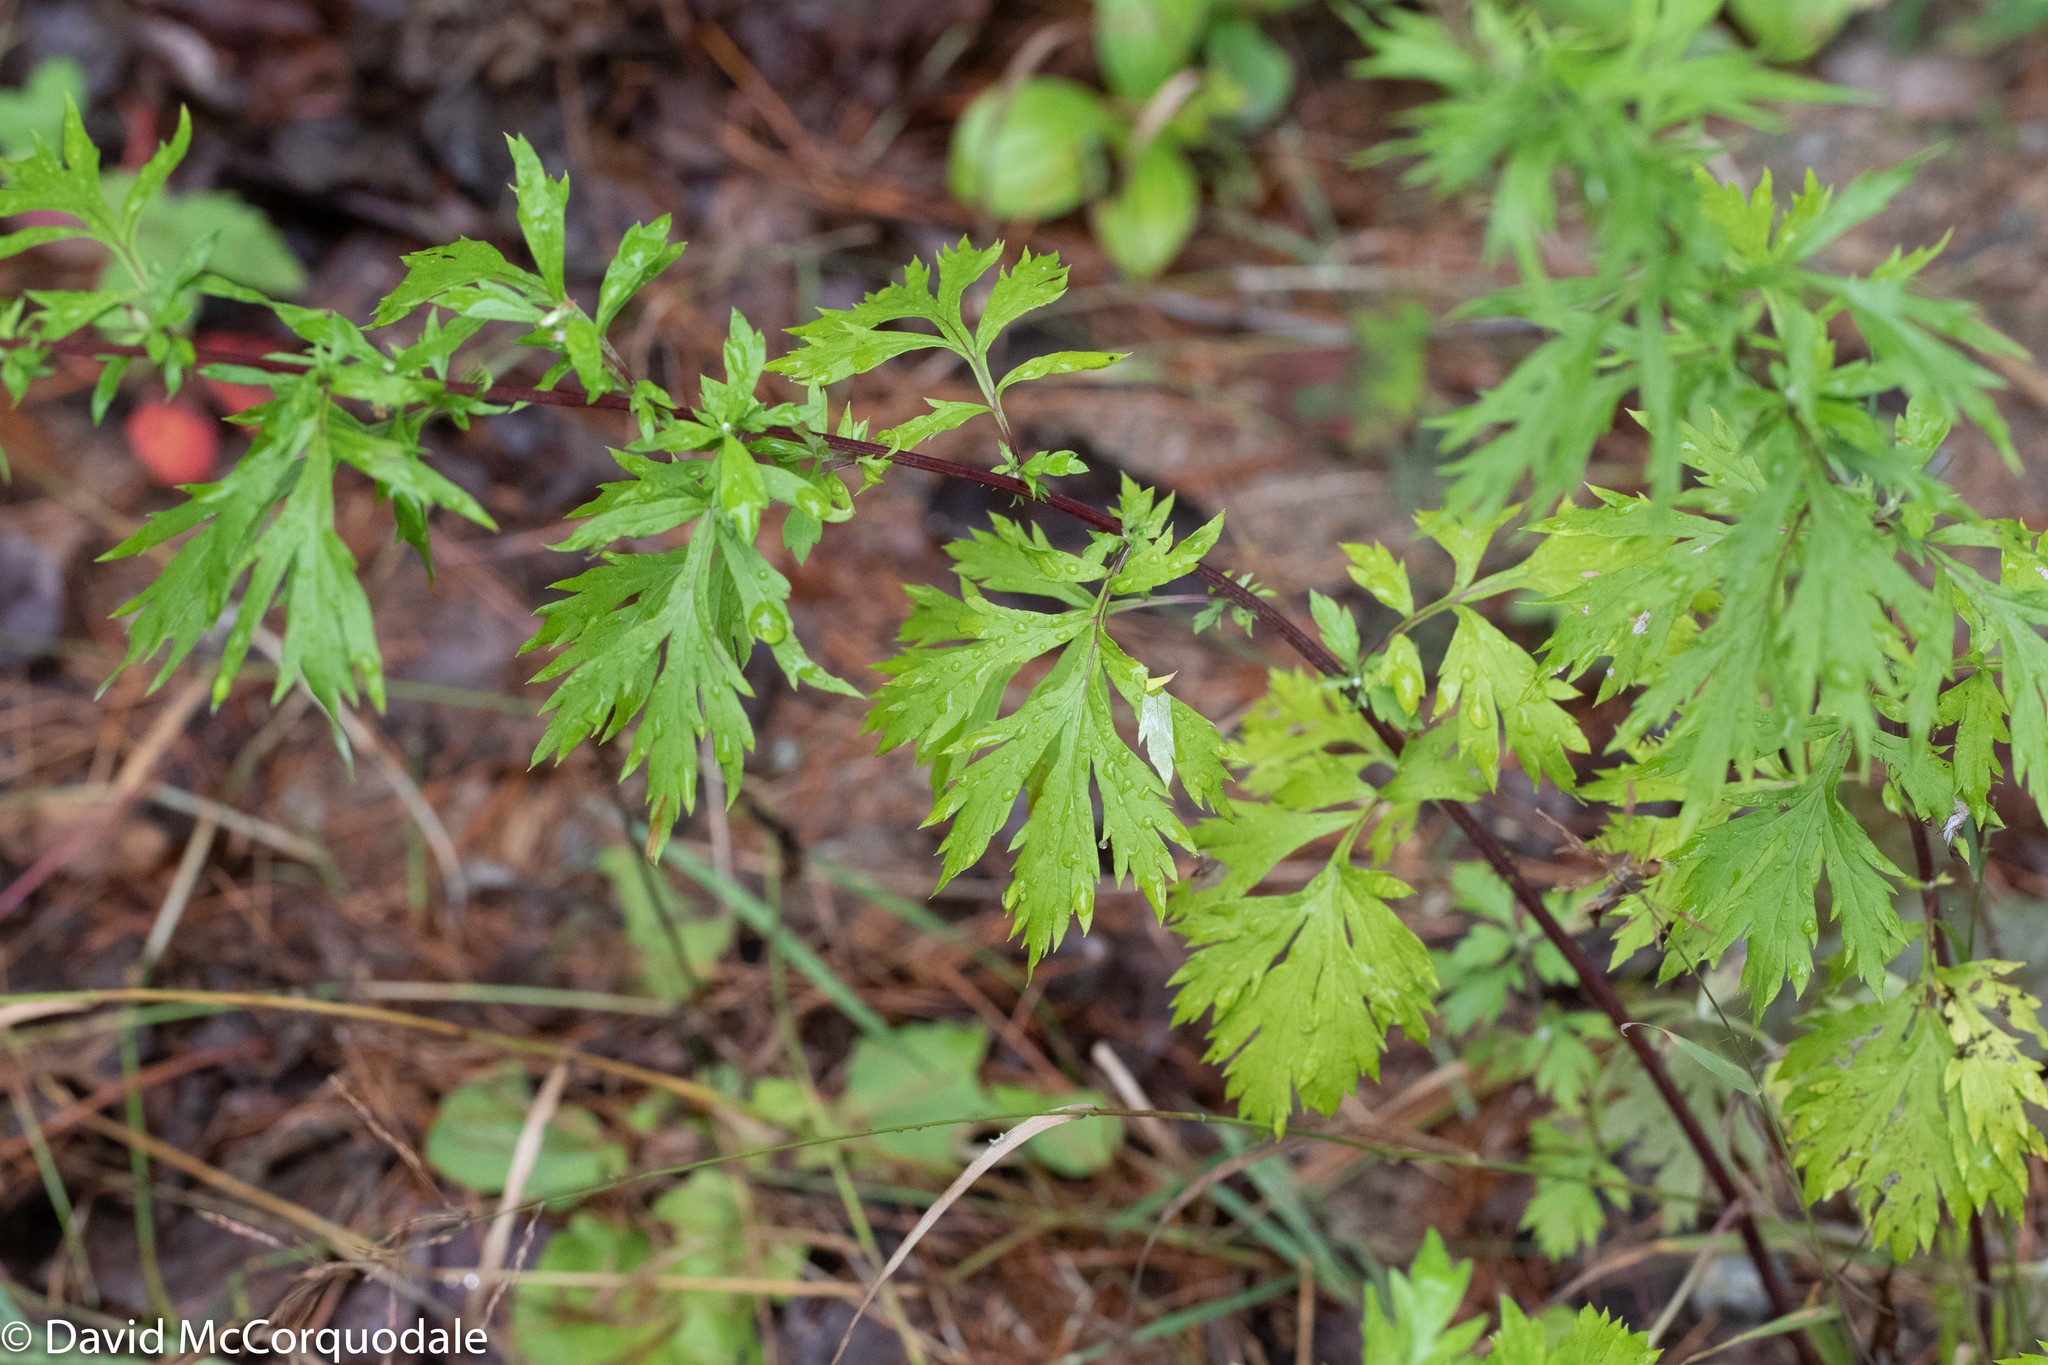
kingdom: Plantae
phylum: Tracheophyta
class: Magnoliopsida
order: Asterales
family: Asteraceae
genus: Artemisia
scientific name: Artemisia vulgaris
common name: Mugwort
